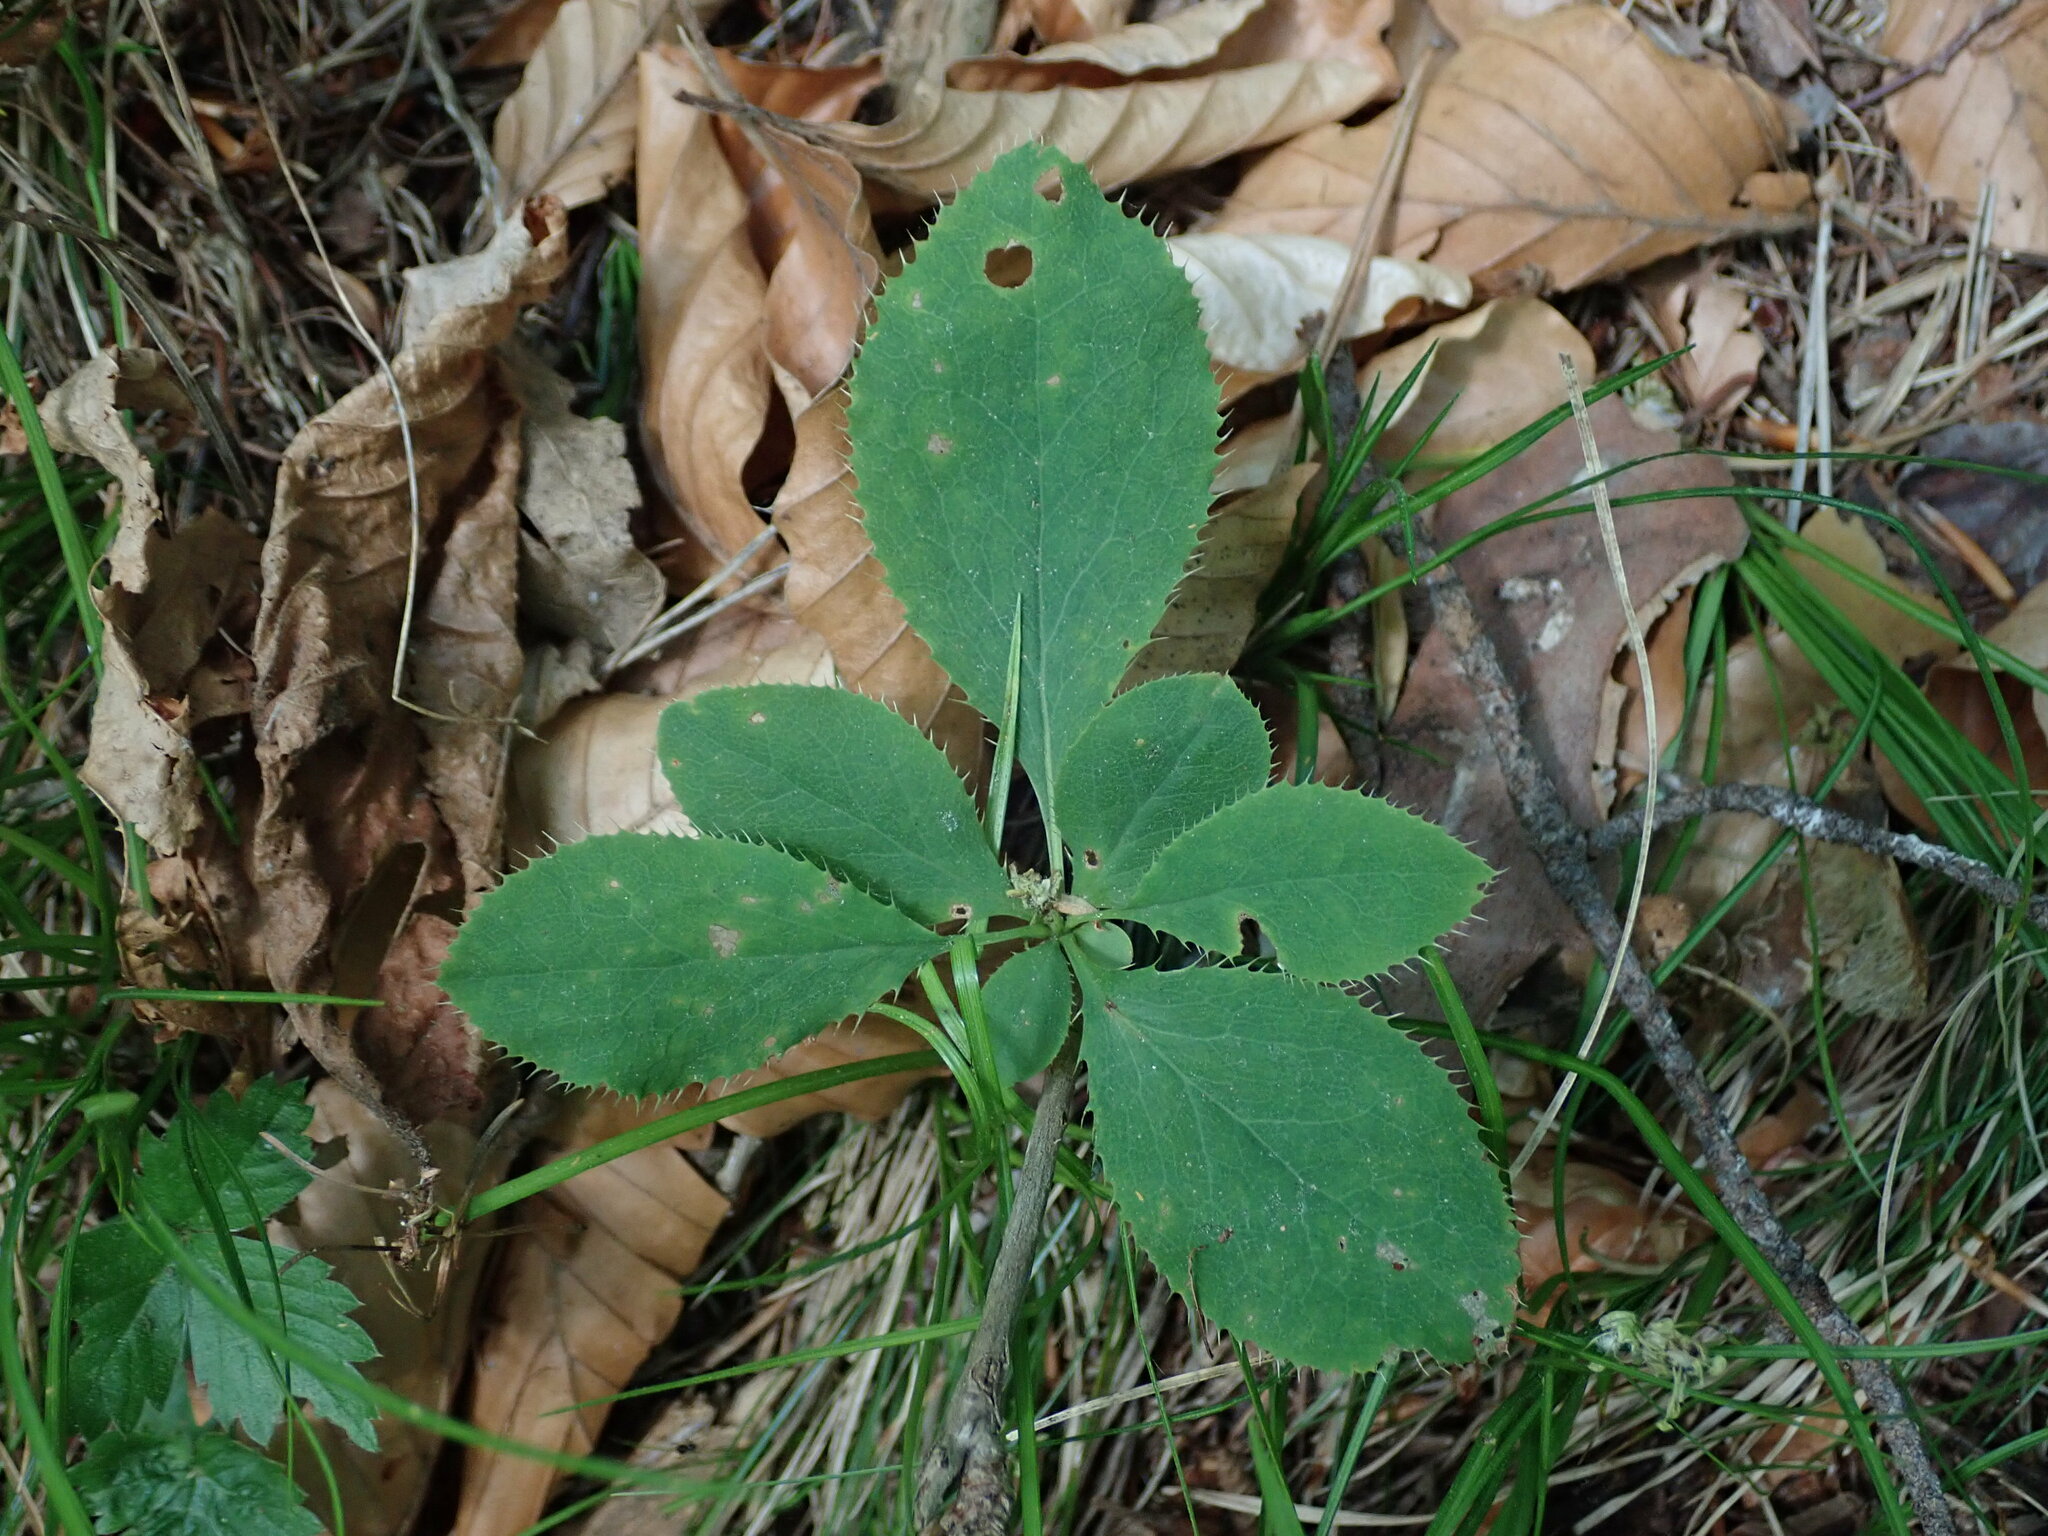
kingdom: Plantae
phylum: Tracheophyta
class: Magnoliopsida
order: Ranunculales
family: Berberidaceae
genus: Berberis
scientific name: Berberis vulgaris
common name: Barberry
